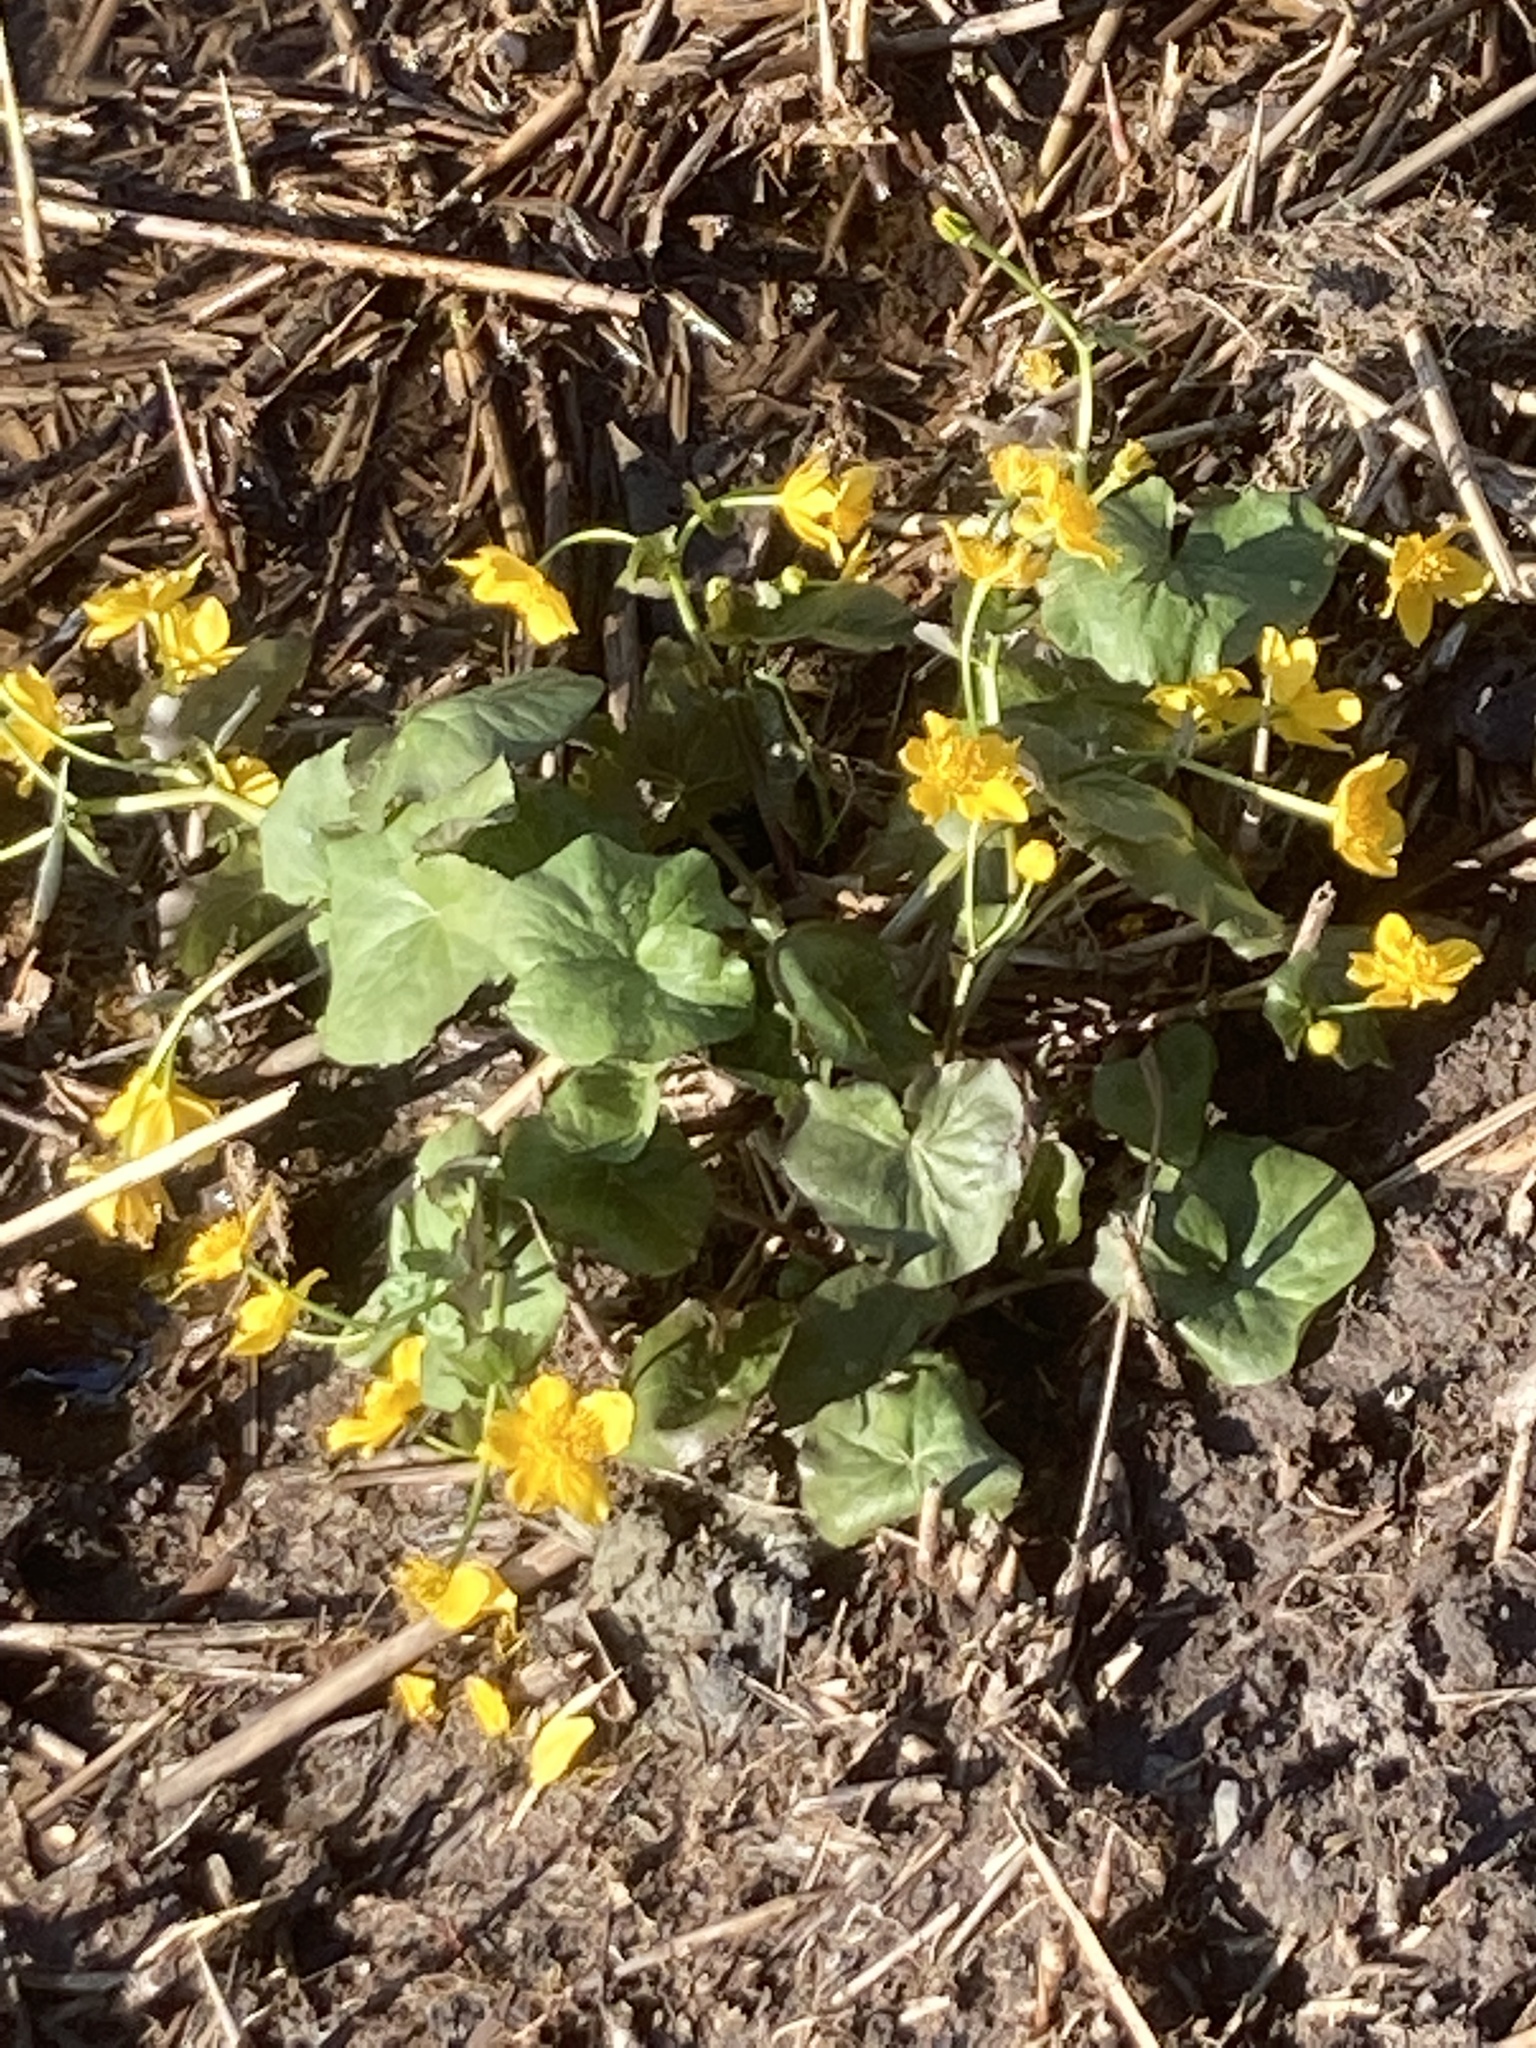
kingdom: Plantae
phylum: Tracheophyta
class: Magnoliopsida
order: Ranunculales
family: Ranunculaceae
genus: Caltha
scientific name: Caltha palustris
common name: Marsh marigold
